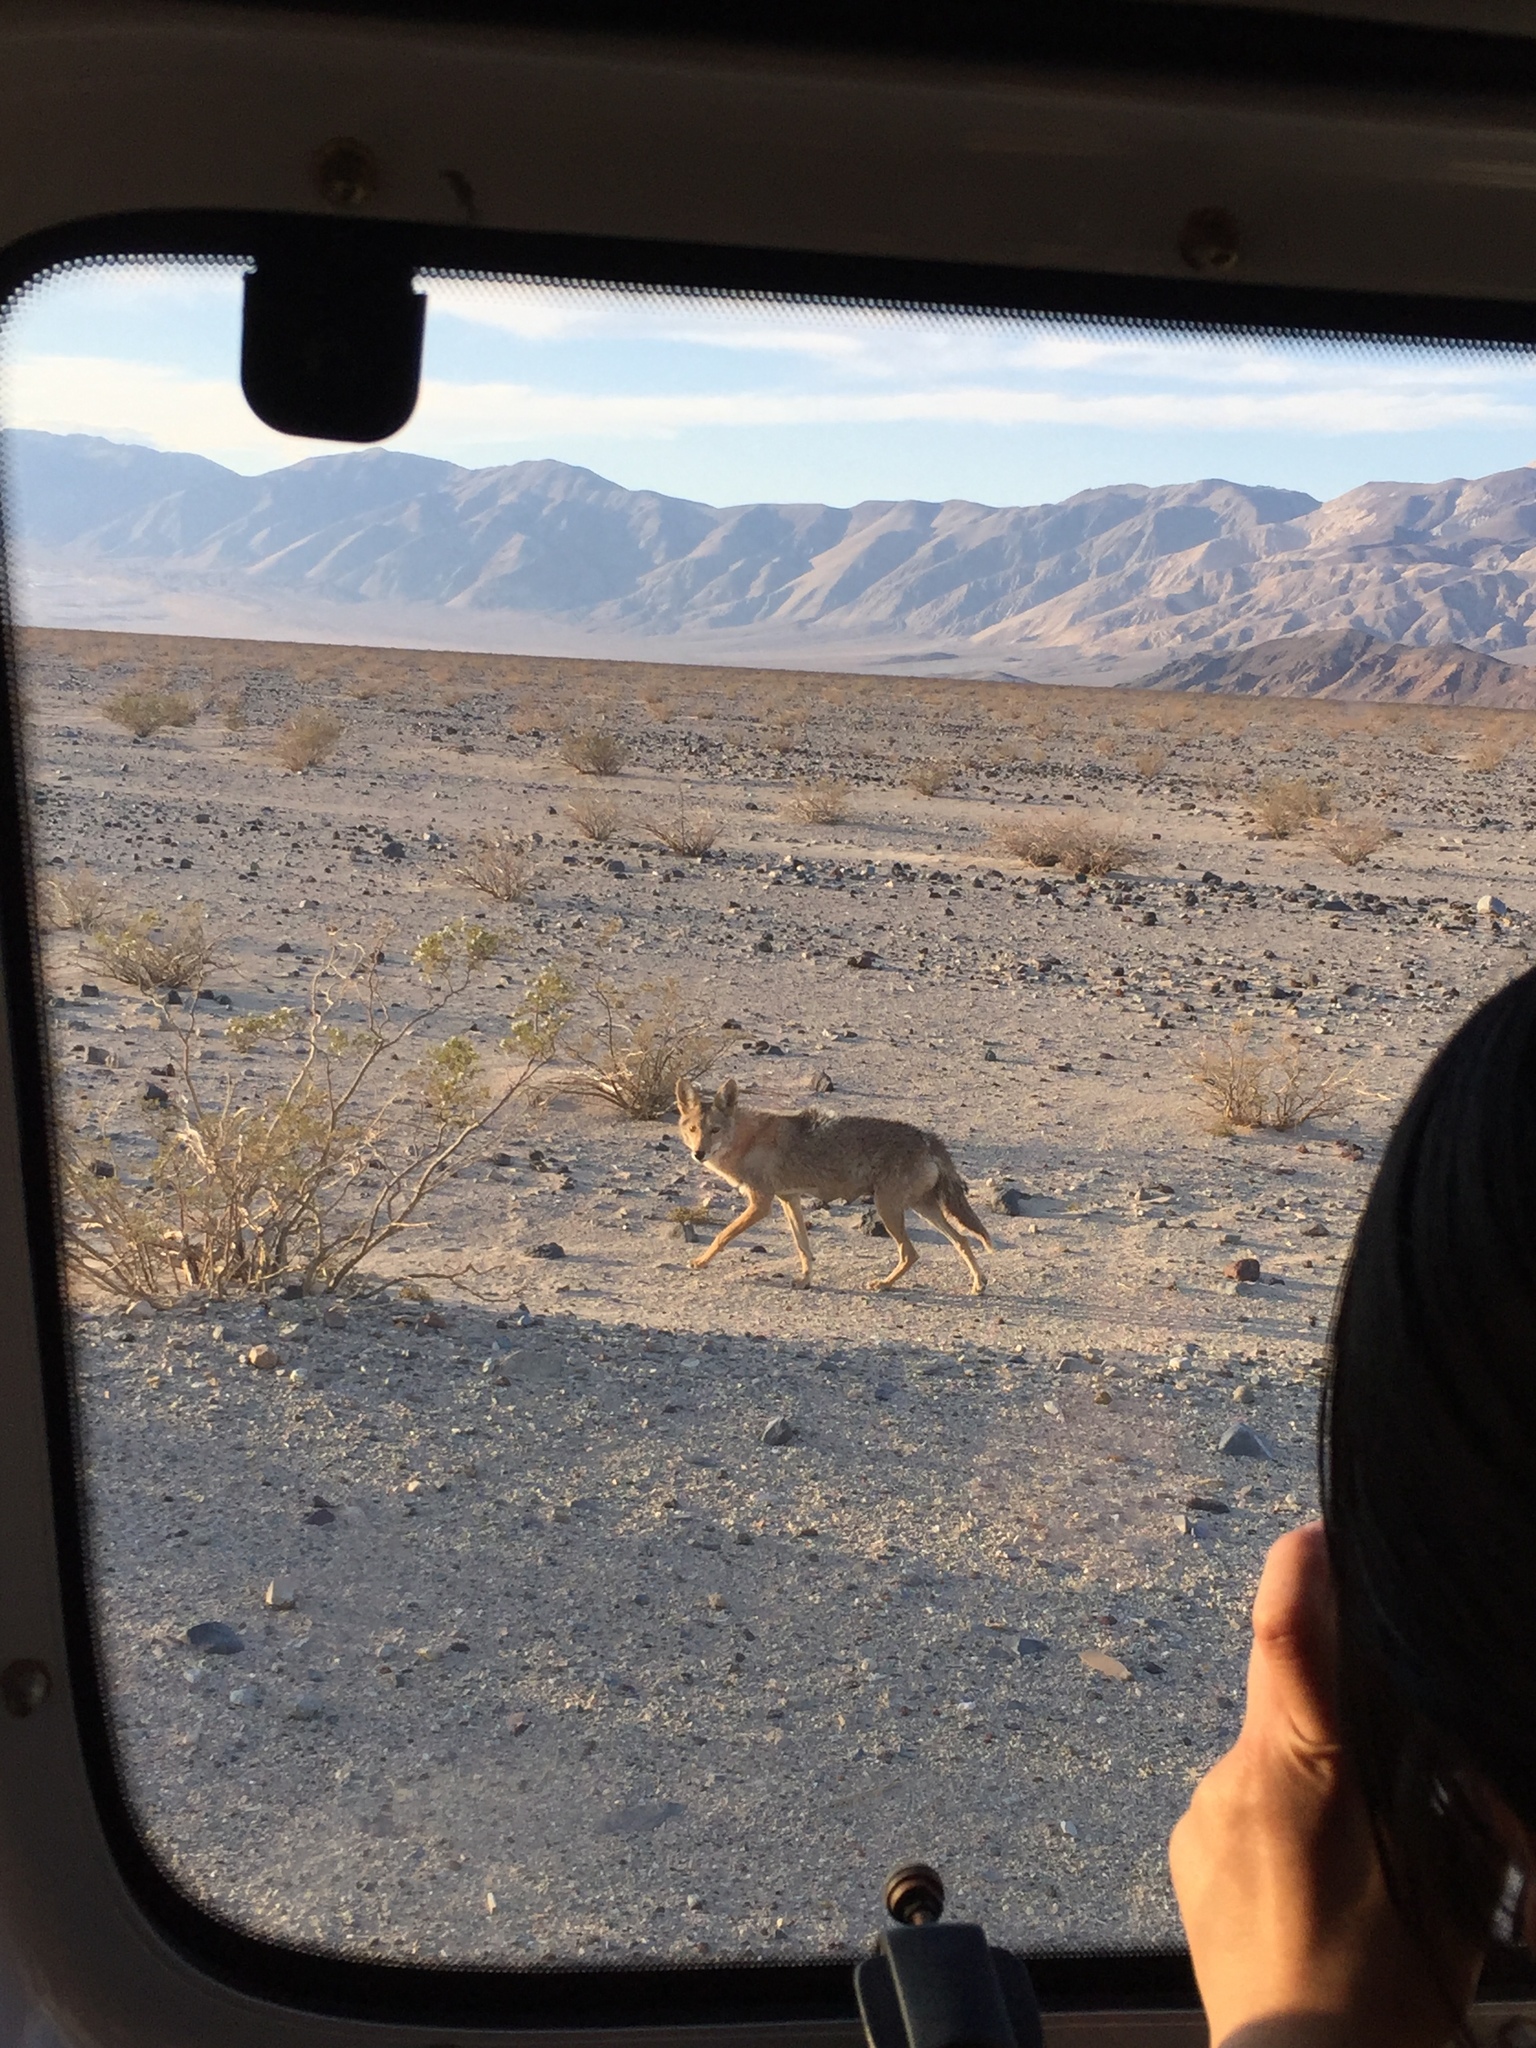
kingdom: Animalia
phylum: Chordata
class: Mammalia
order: Carnivora
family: Canidae
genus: Canis
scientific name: Canis latrans
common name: Coyote
